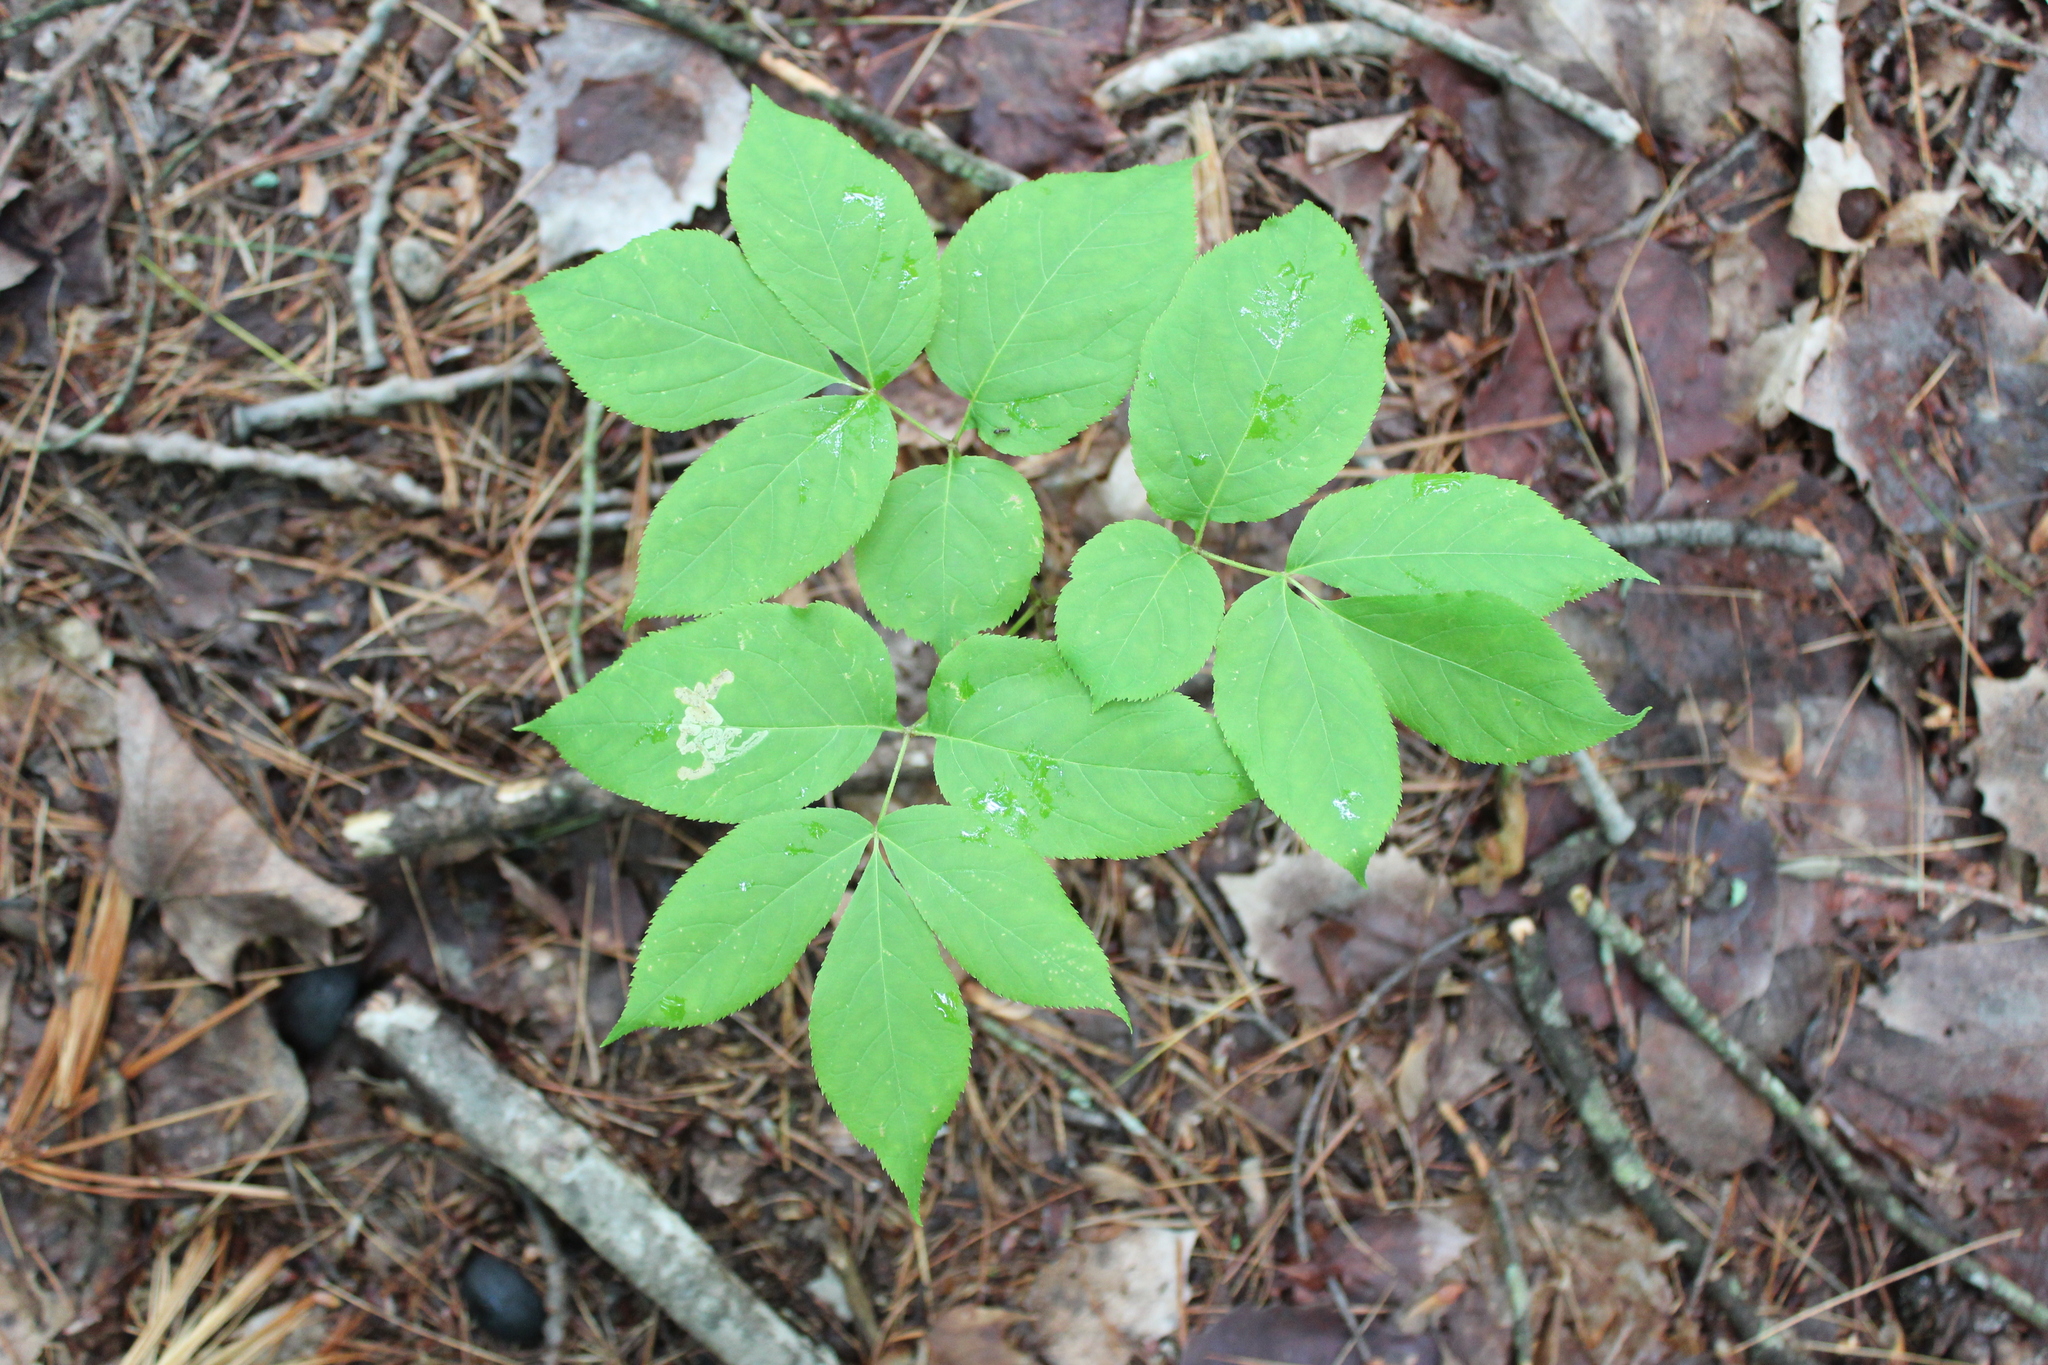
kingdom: Plantae
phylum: Tracheophyta
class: Magnoliopsida
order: Apiales
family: Araliaceae
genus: Aralia
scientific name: Aralia nudicaulis
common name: Wild sarsaparilla
